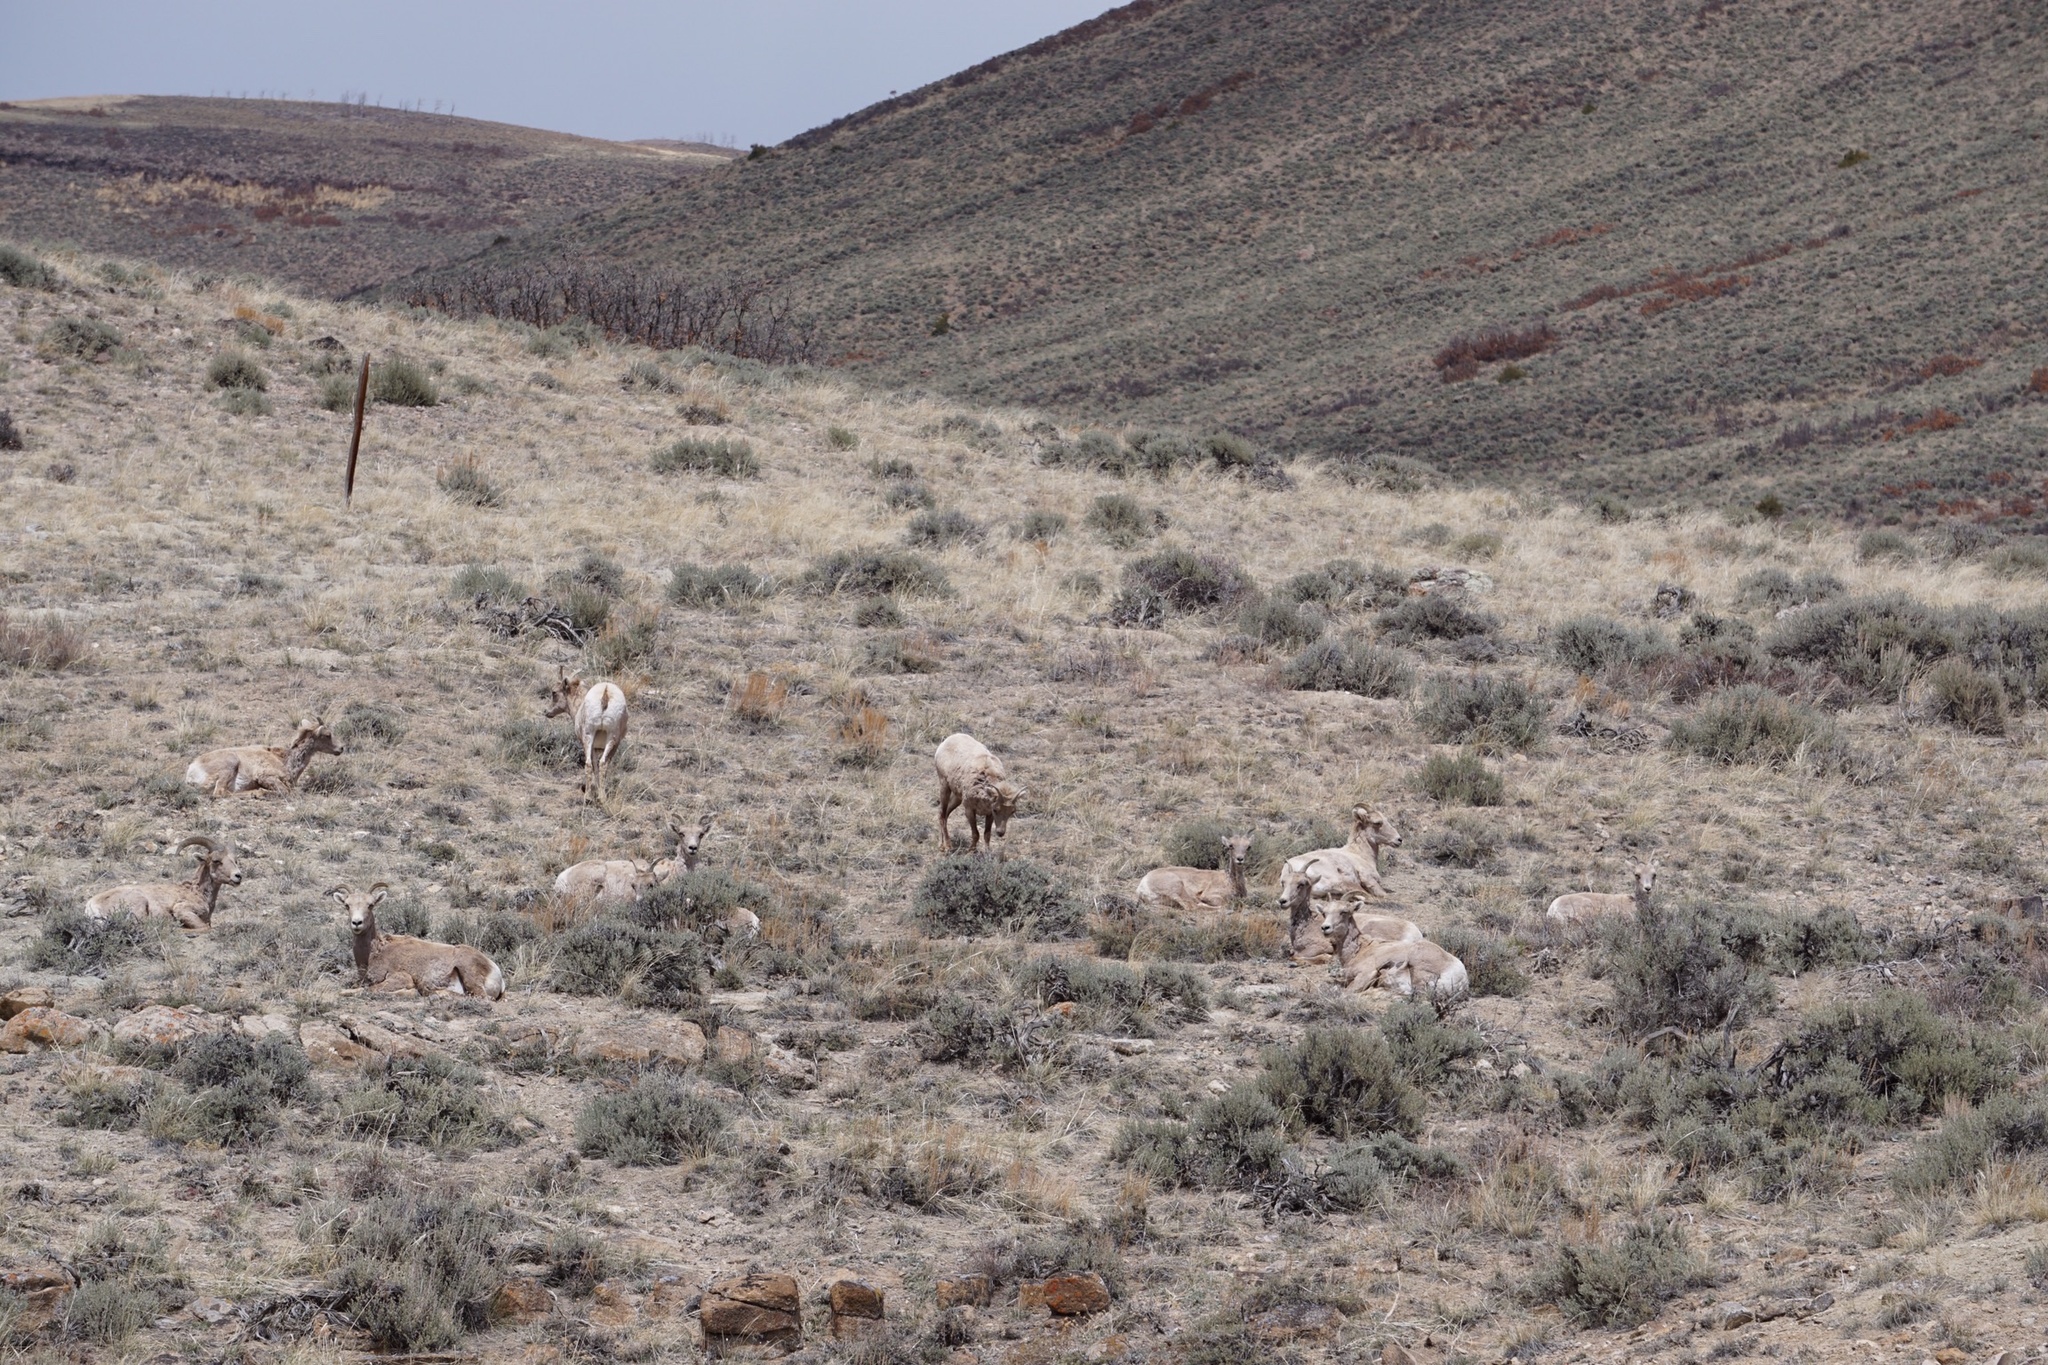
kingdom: Animalia
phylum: Chordata
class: Mammalia
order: Artiodactyla
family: Bovidae
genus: Ovis
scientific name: Ovis canadensis
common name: Bighorn sheep
